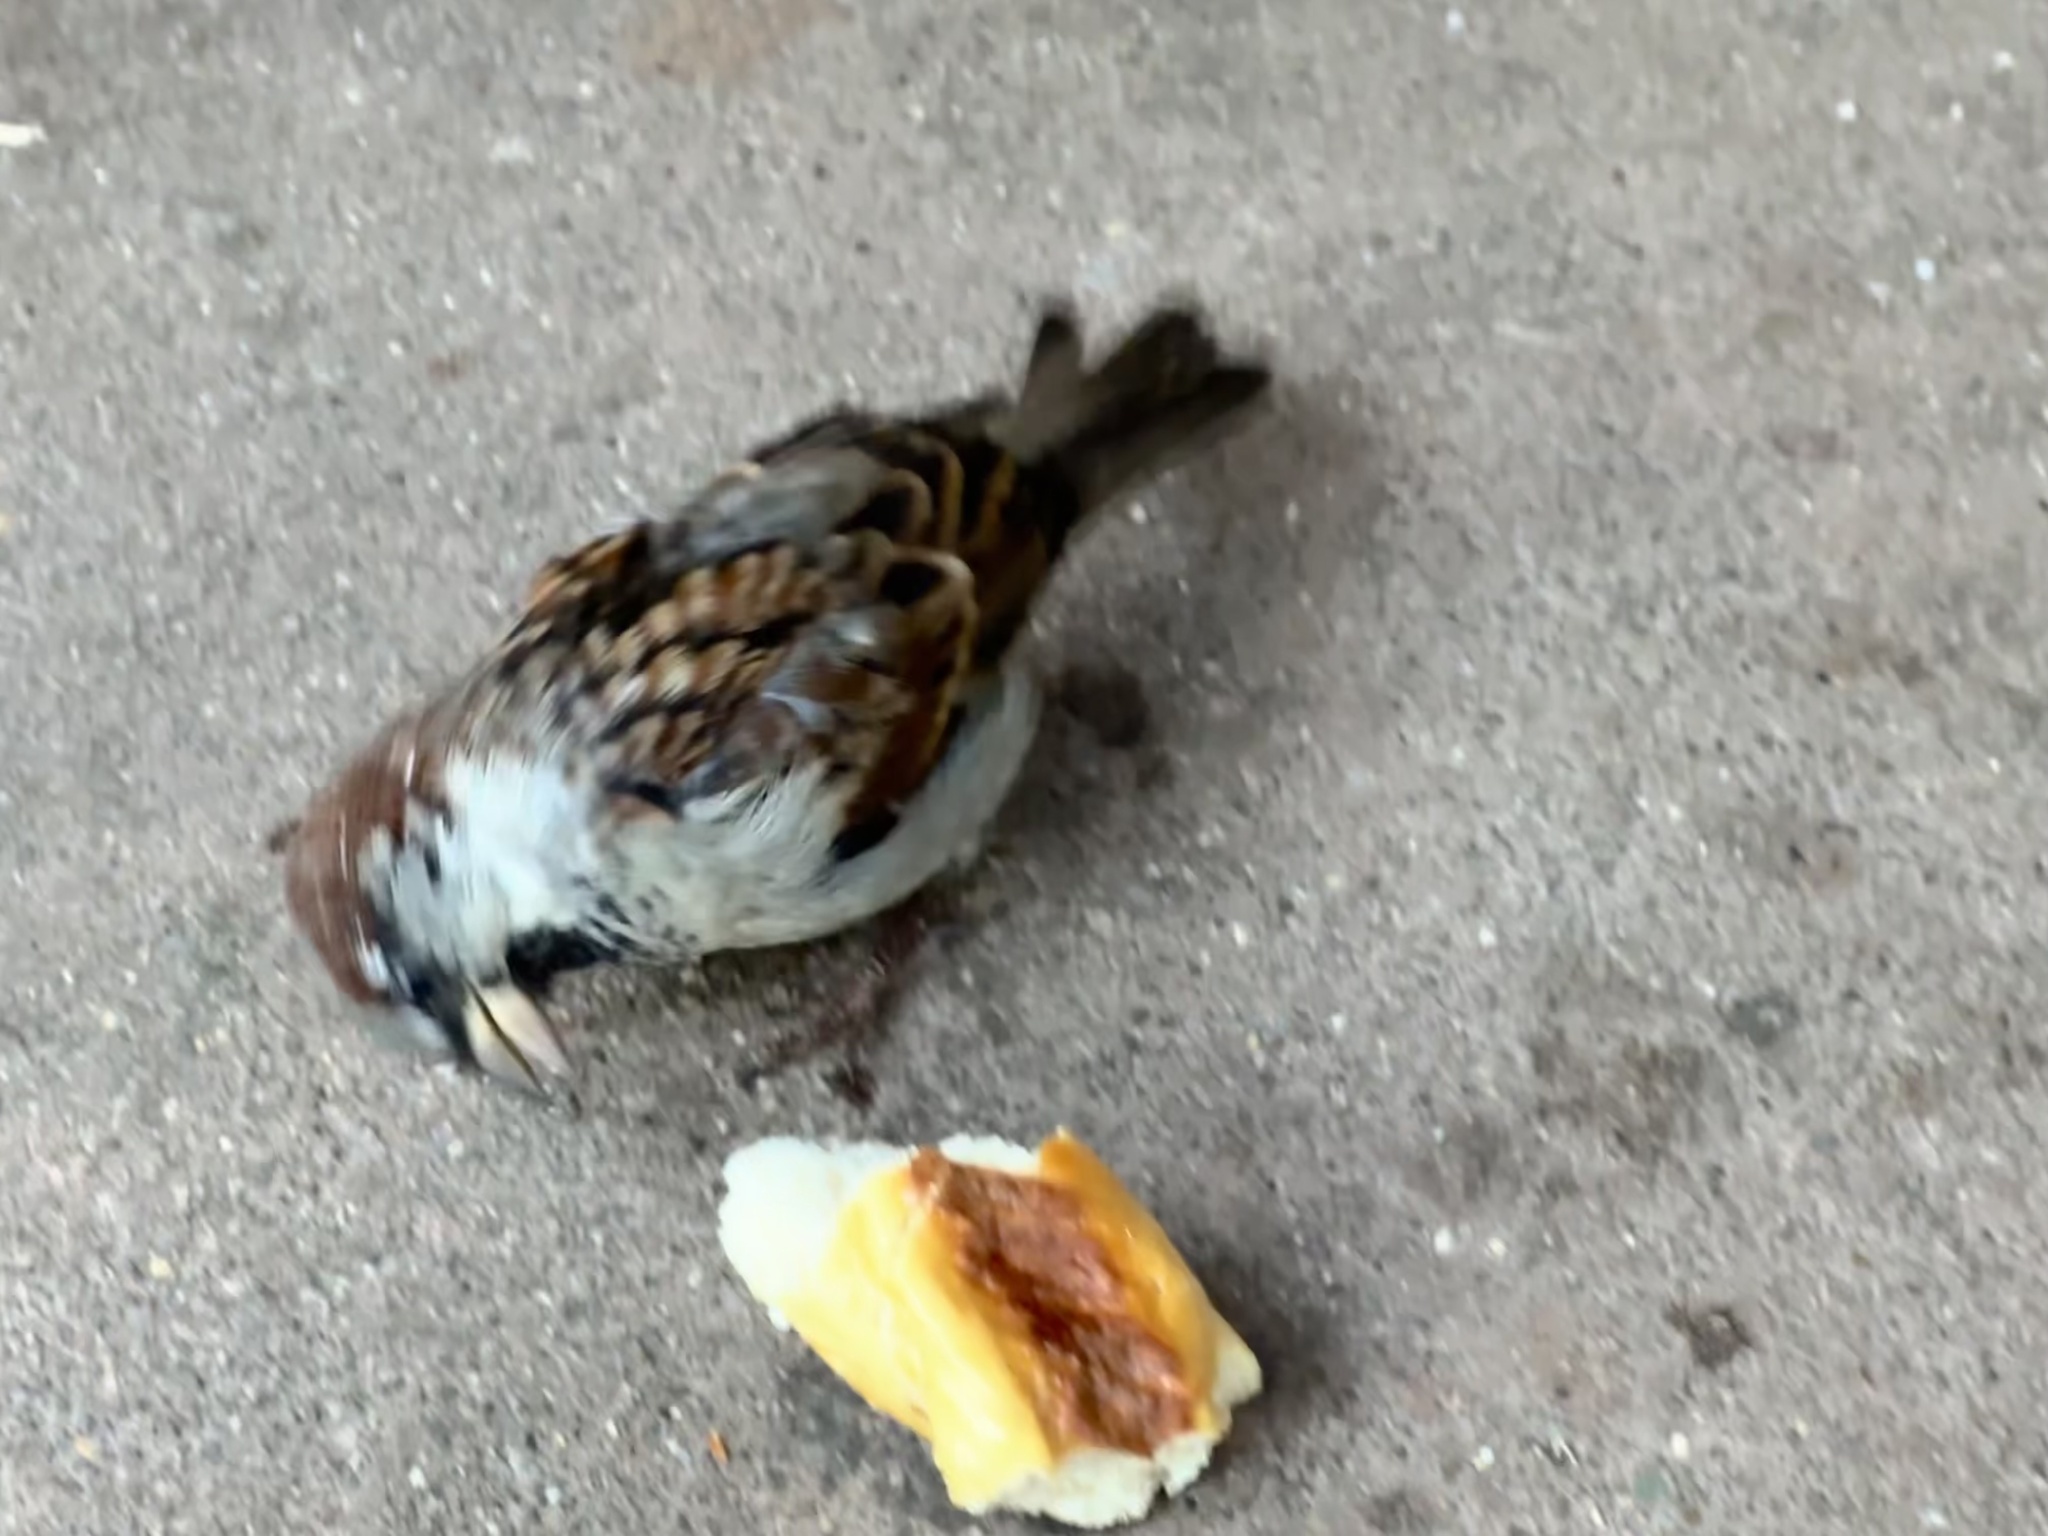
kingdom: Animalia
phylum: Chordata
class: Aves
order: Passeriformes
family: Passeridae
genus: Passer
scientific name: Passer domesticus
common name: House sparrow
